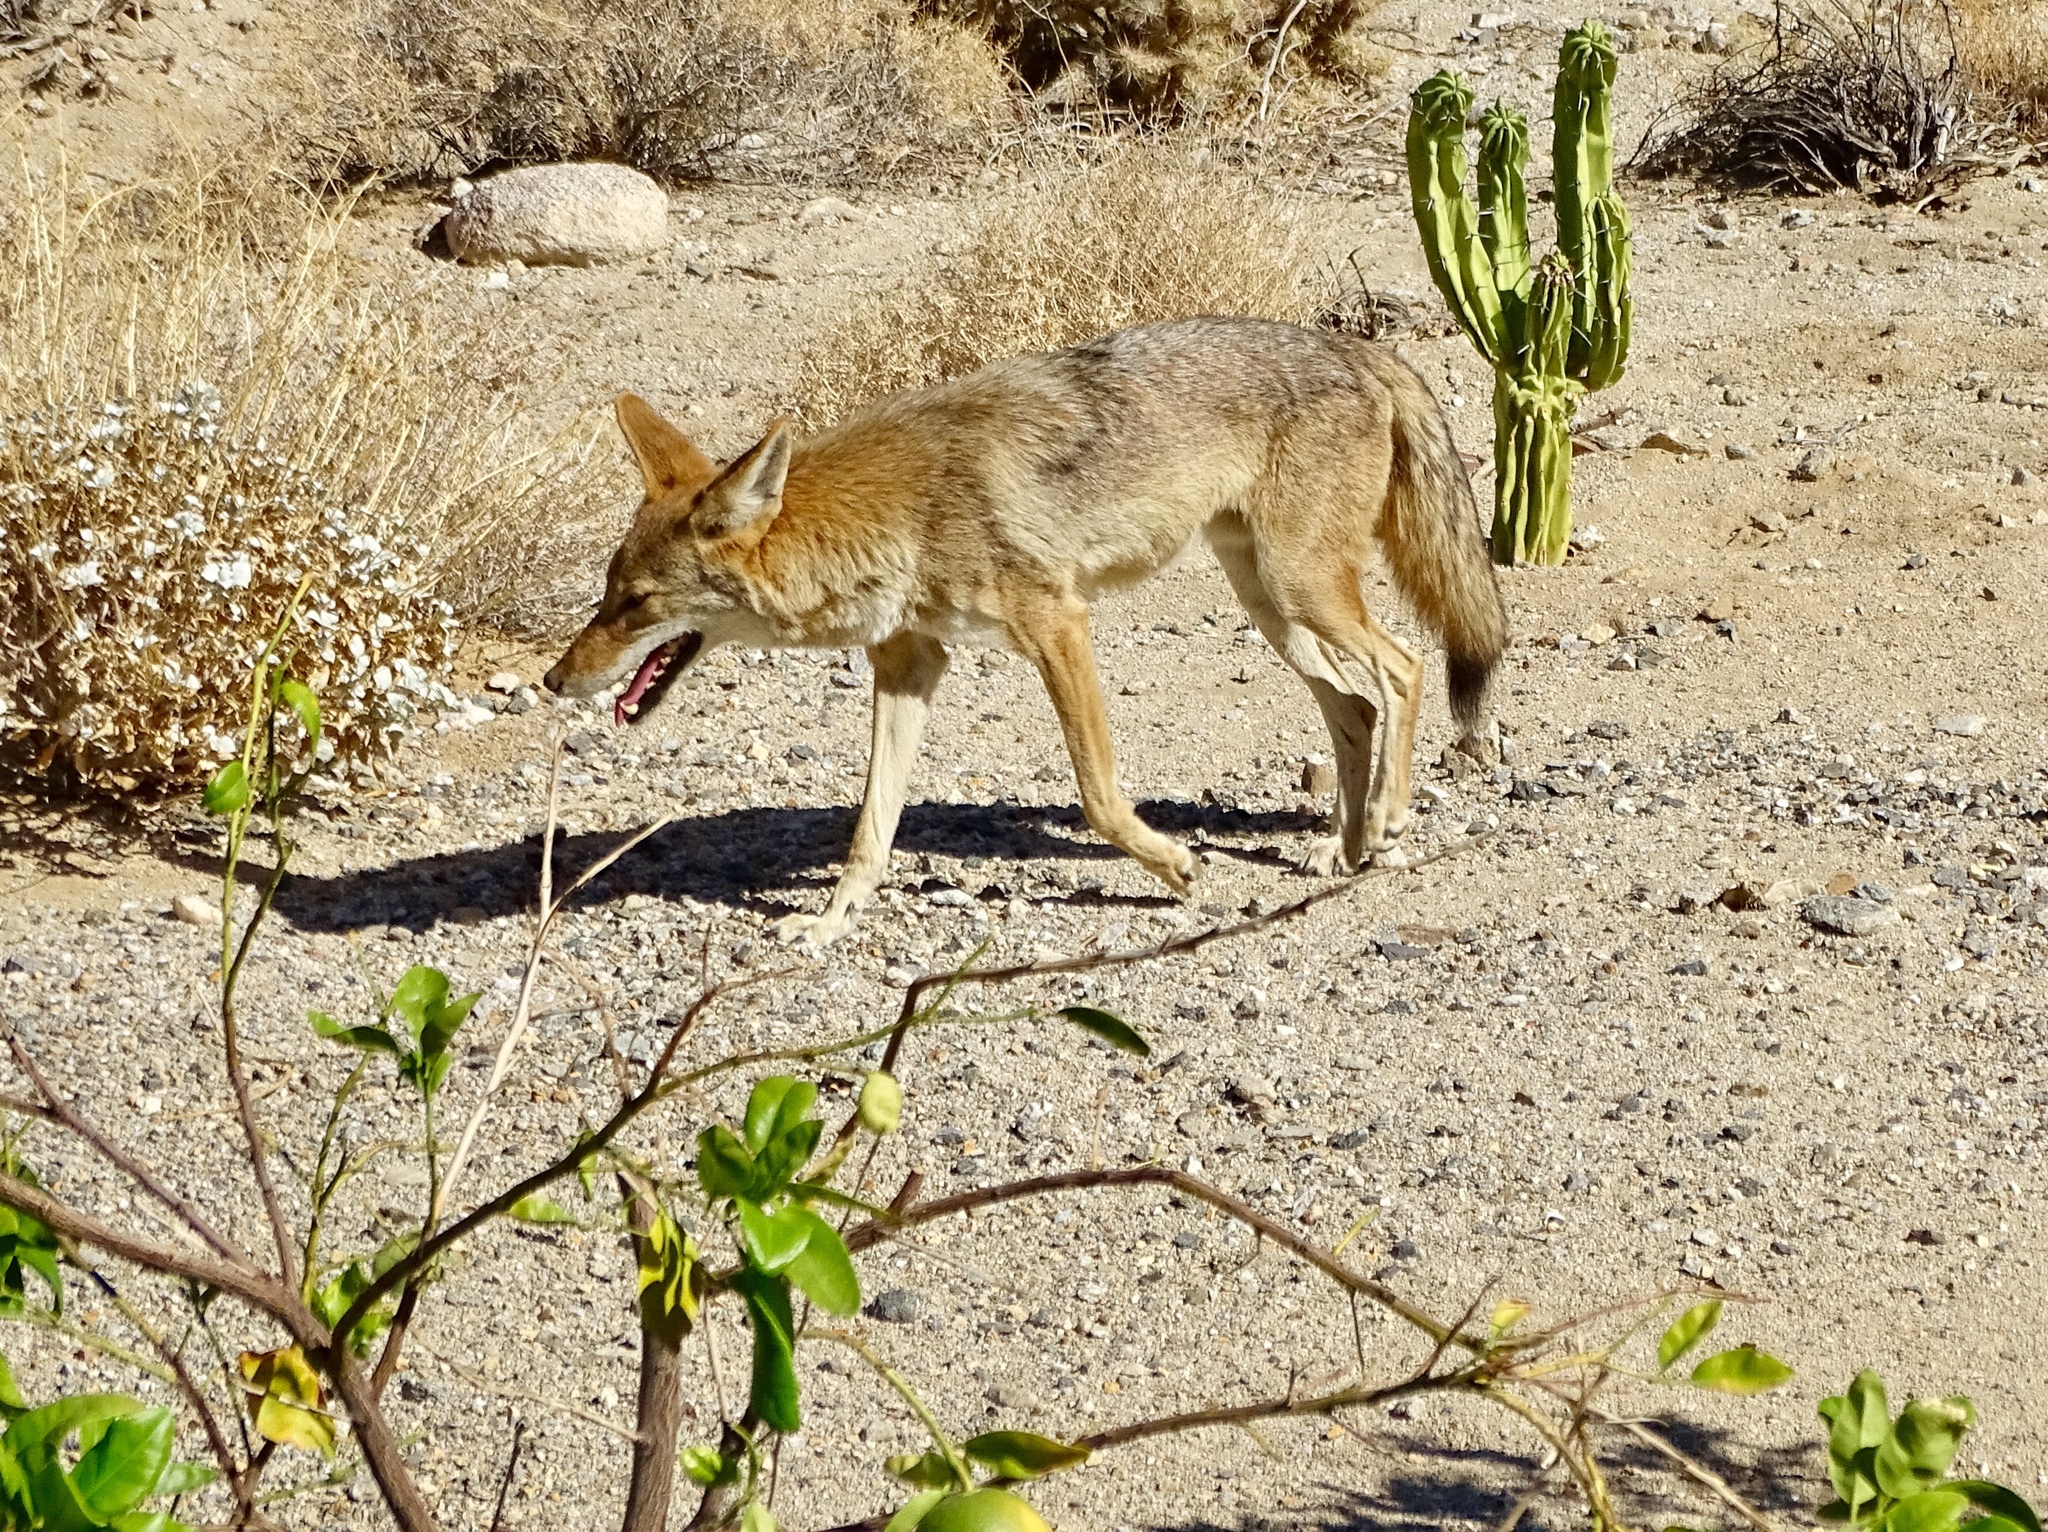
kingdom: Animalia
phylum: Chordata
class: Mammalia
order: Carnivora
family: Canidae
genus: Canis
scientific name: Canis latrans
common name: Coyote
